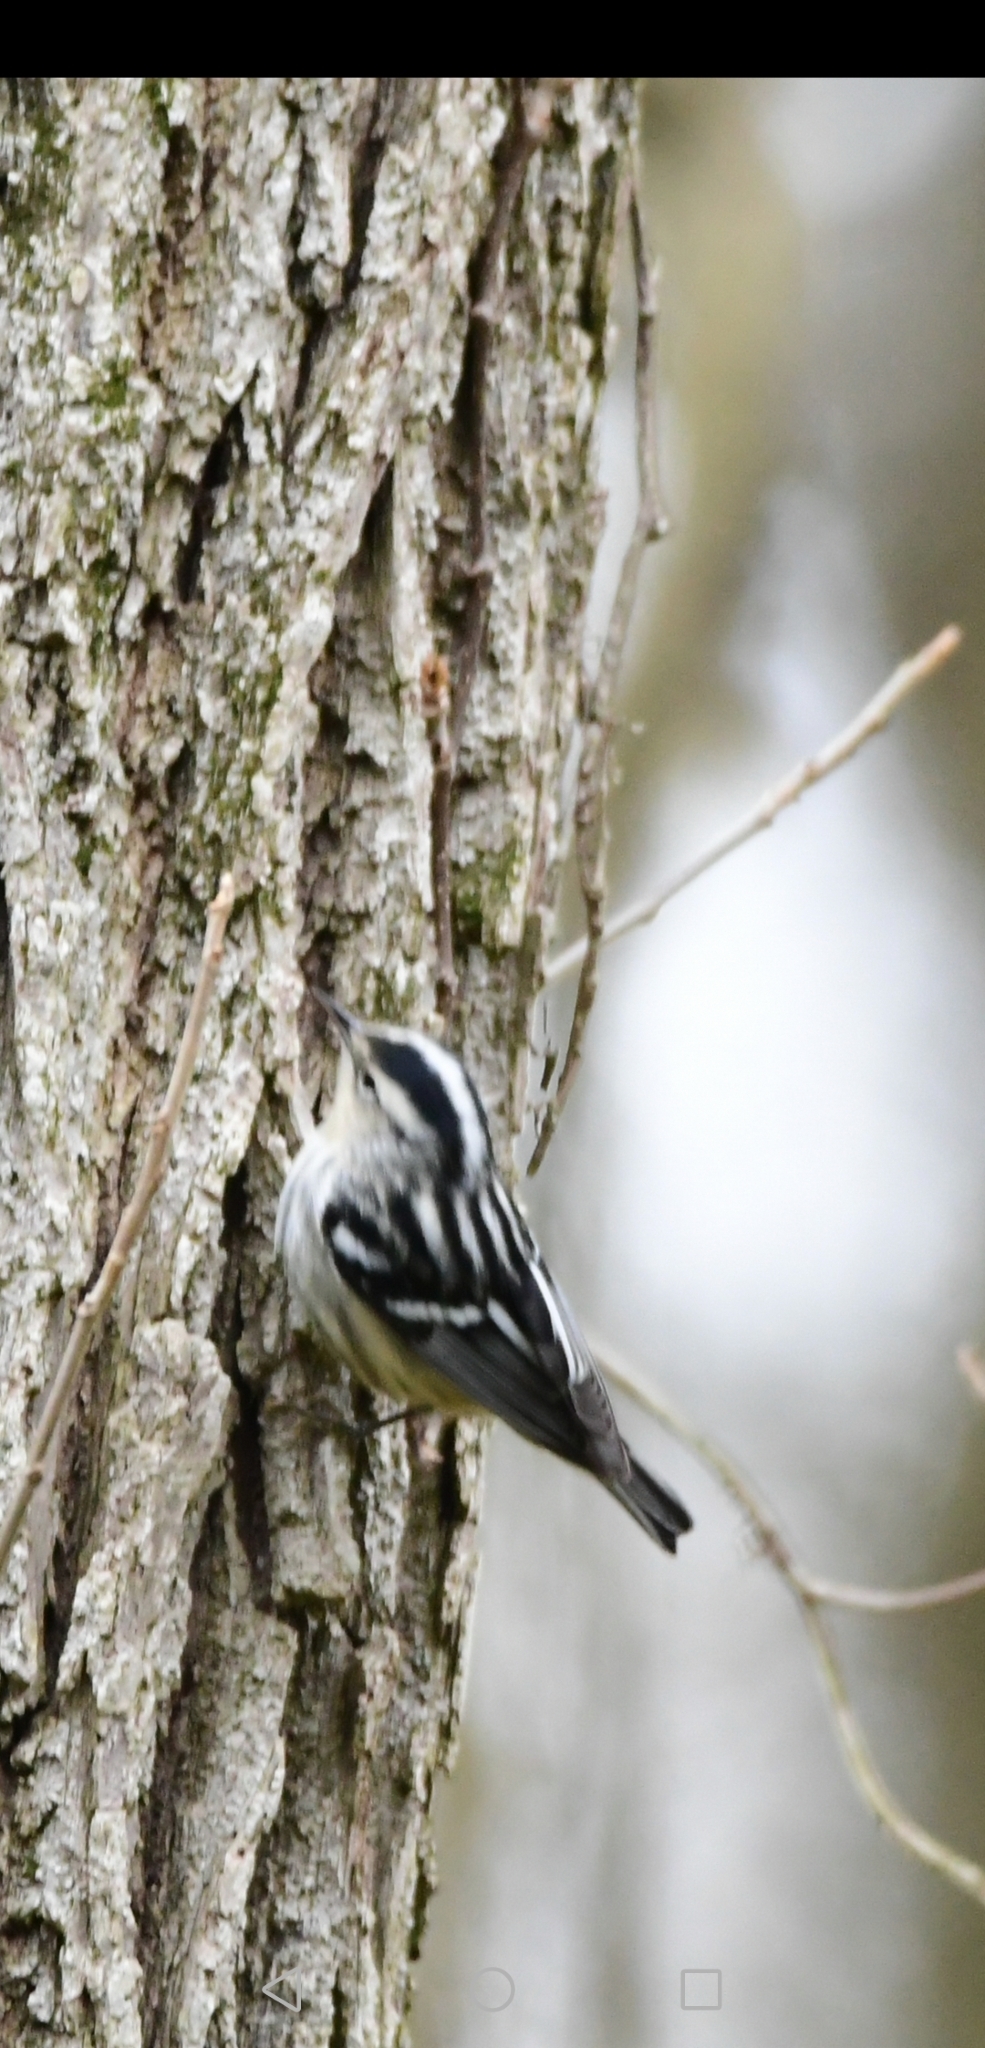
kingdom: Animalia
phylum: Chordata
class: Aves
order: Passeriformes
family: Parulidae
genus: Mniotilta
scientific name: Mniotilta varia
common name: Black-and-white warbler
